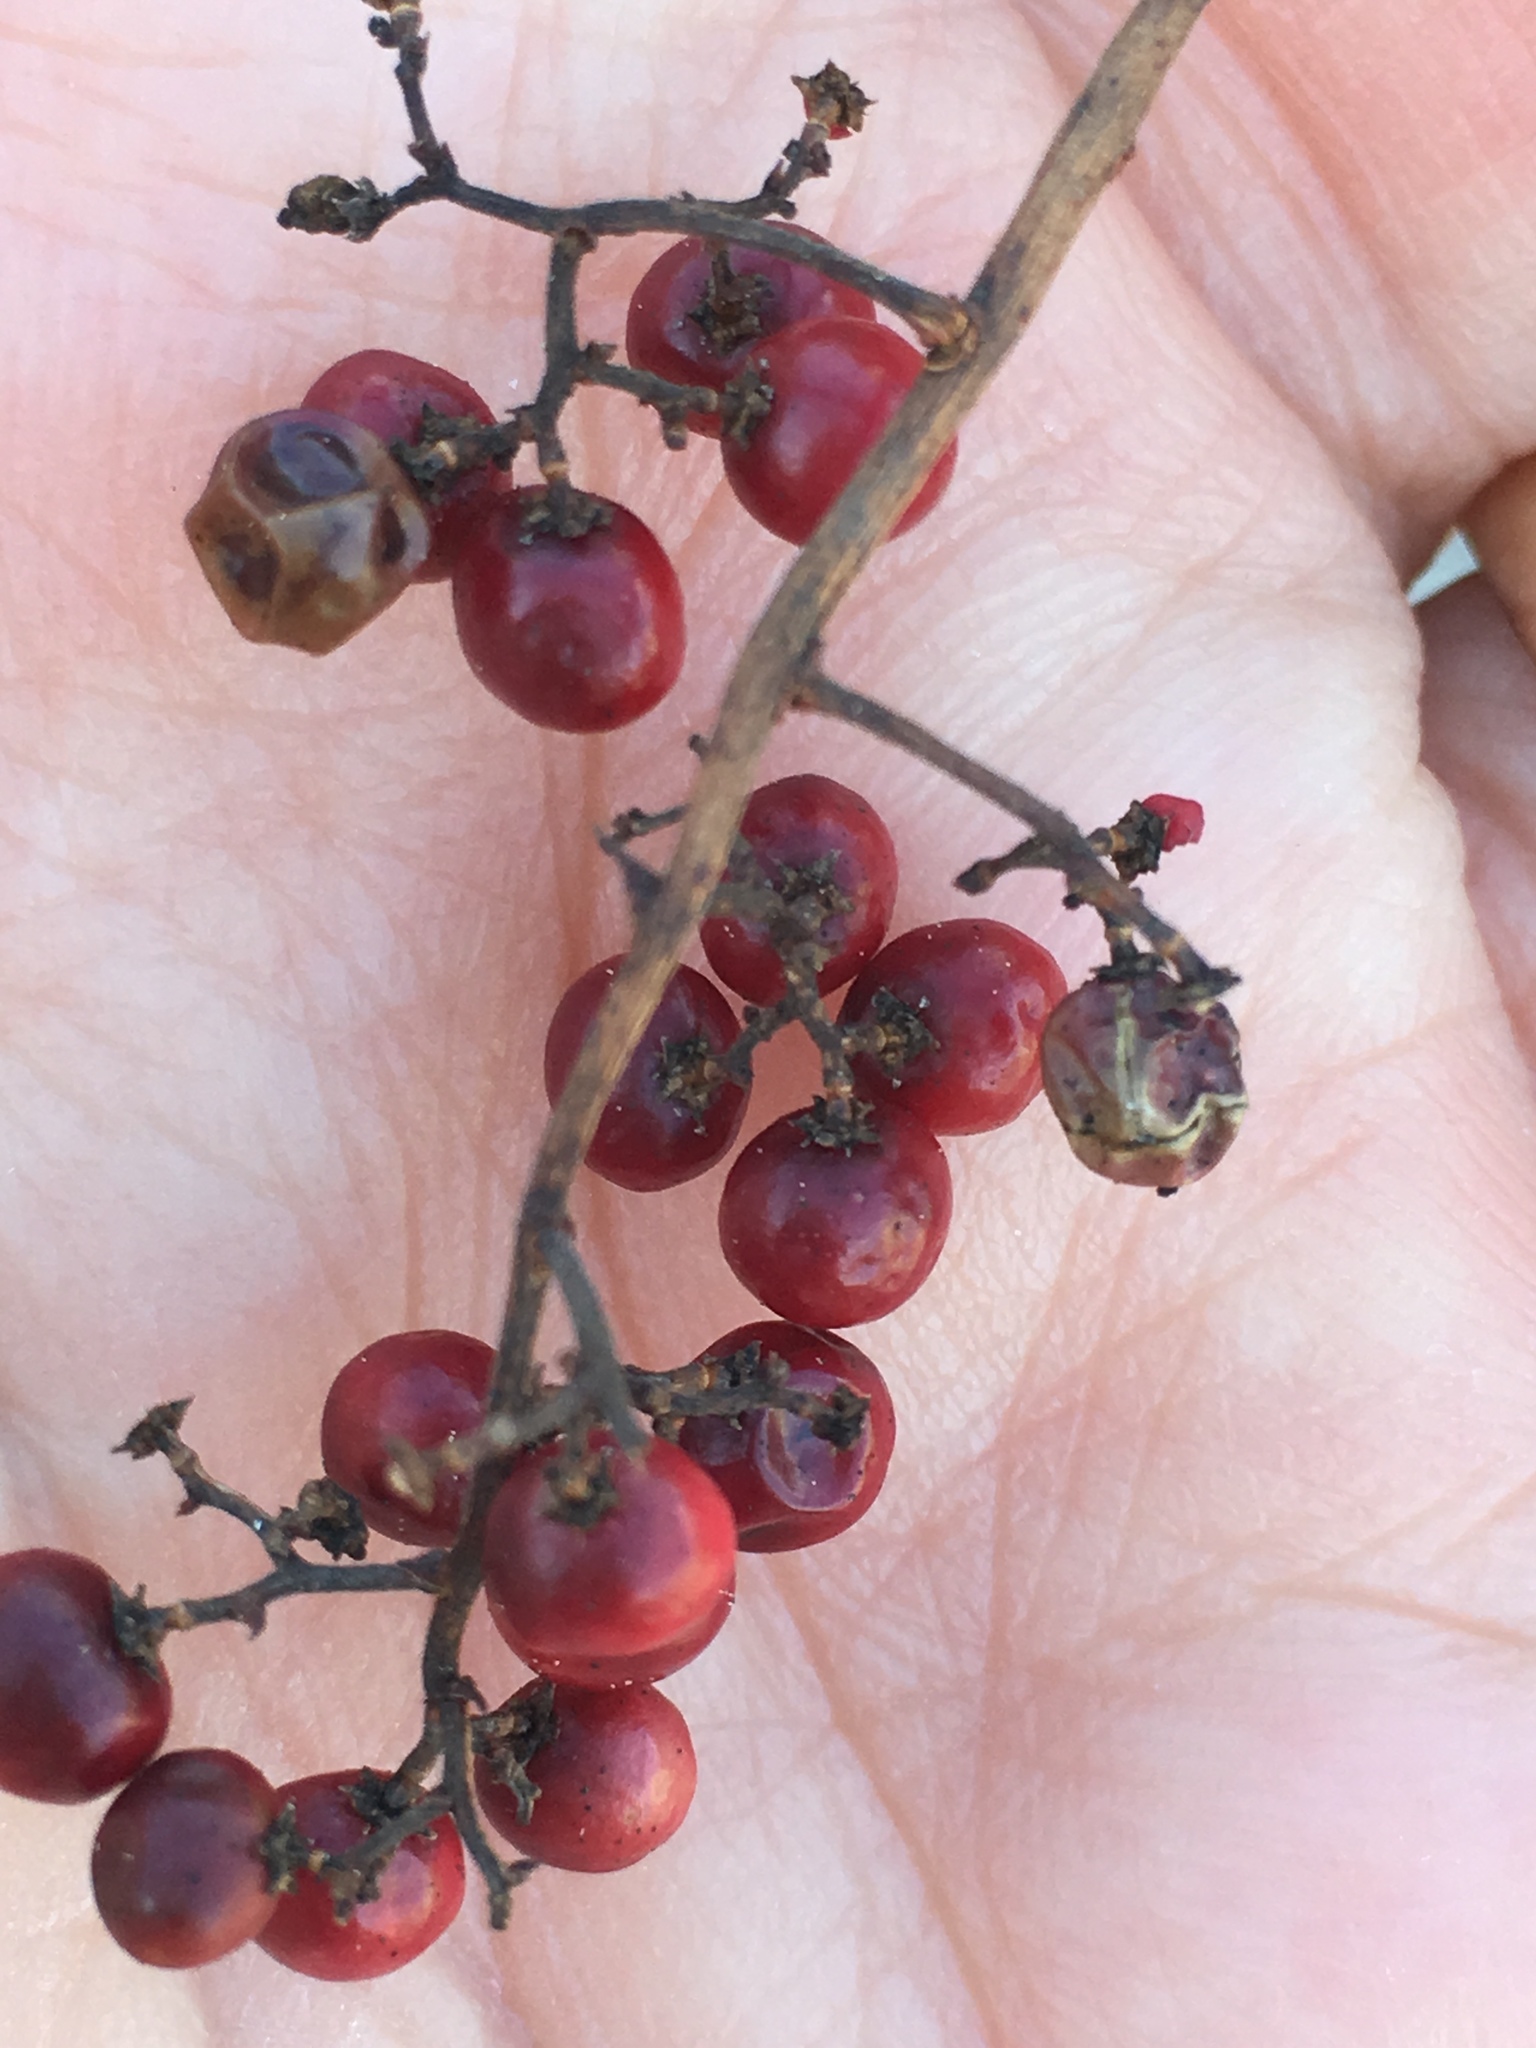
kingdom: Plantae
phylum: Tracheophyta
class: Magnoliopsida
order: Sapindales
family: Anacardiaceae
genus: Schinus
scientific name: Schinus terebinthifolia
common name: Brazilian peppertree
